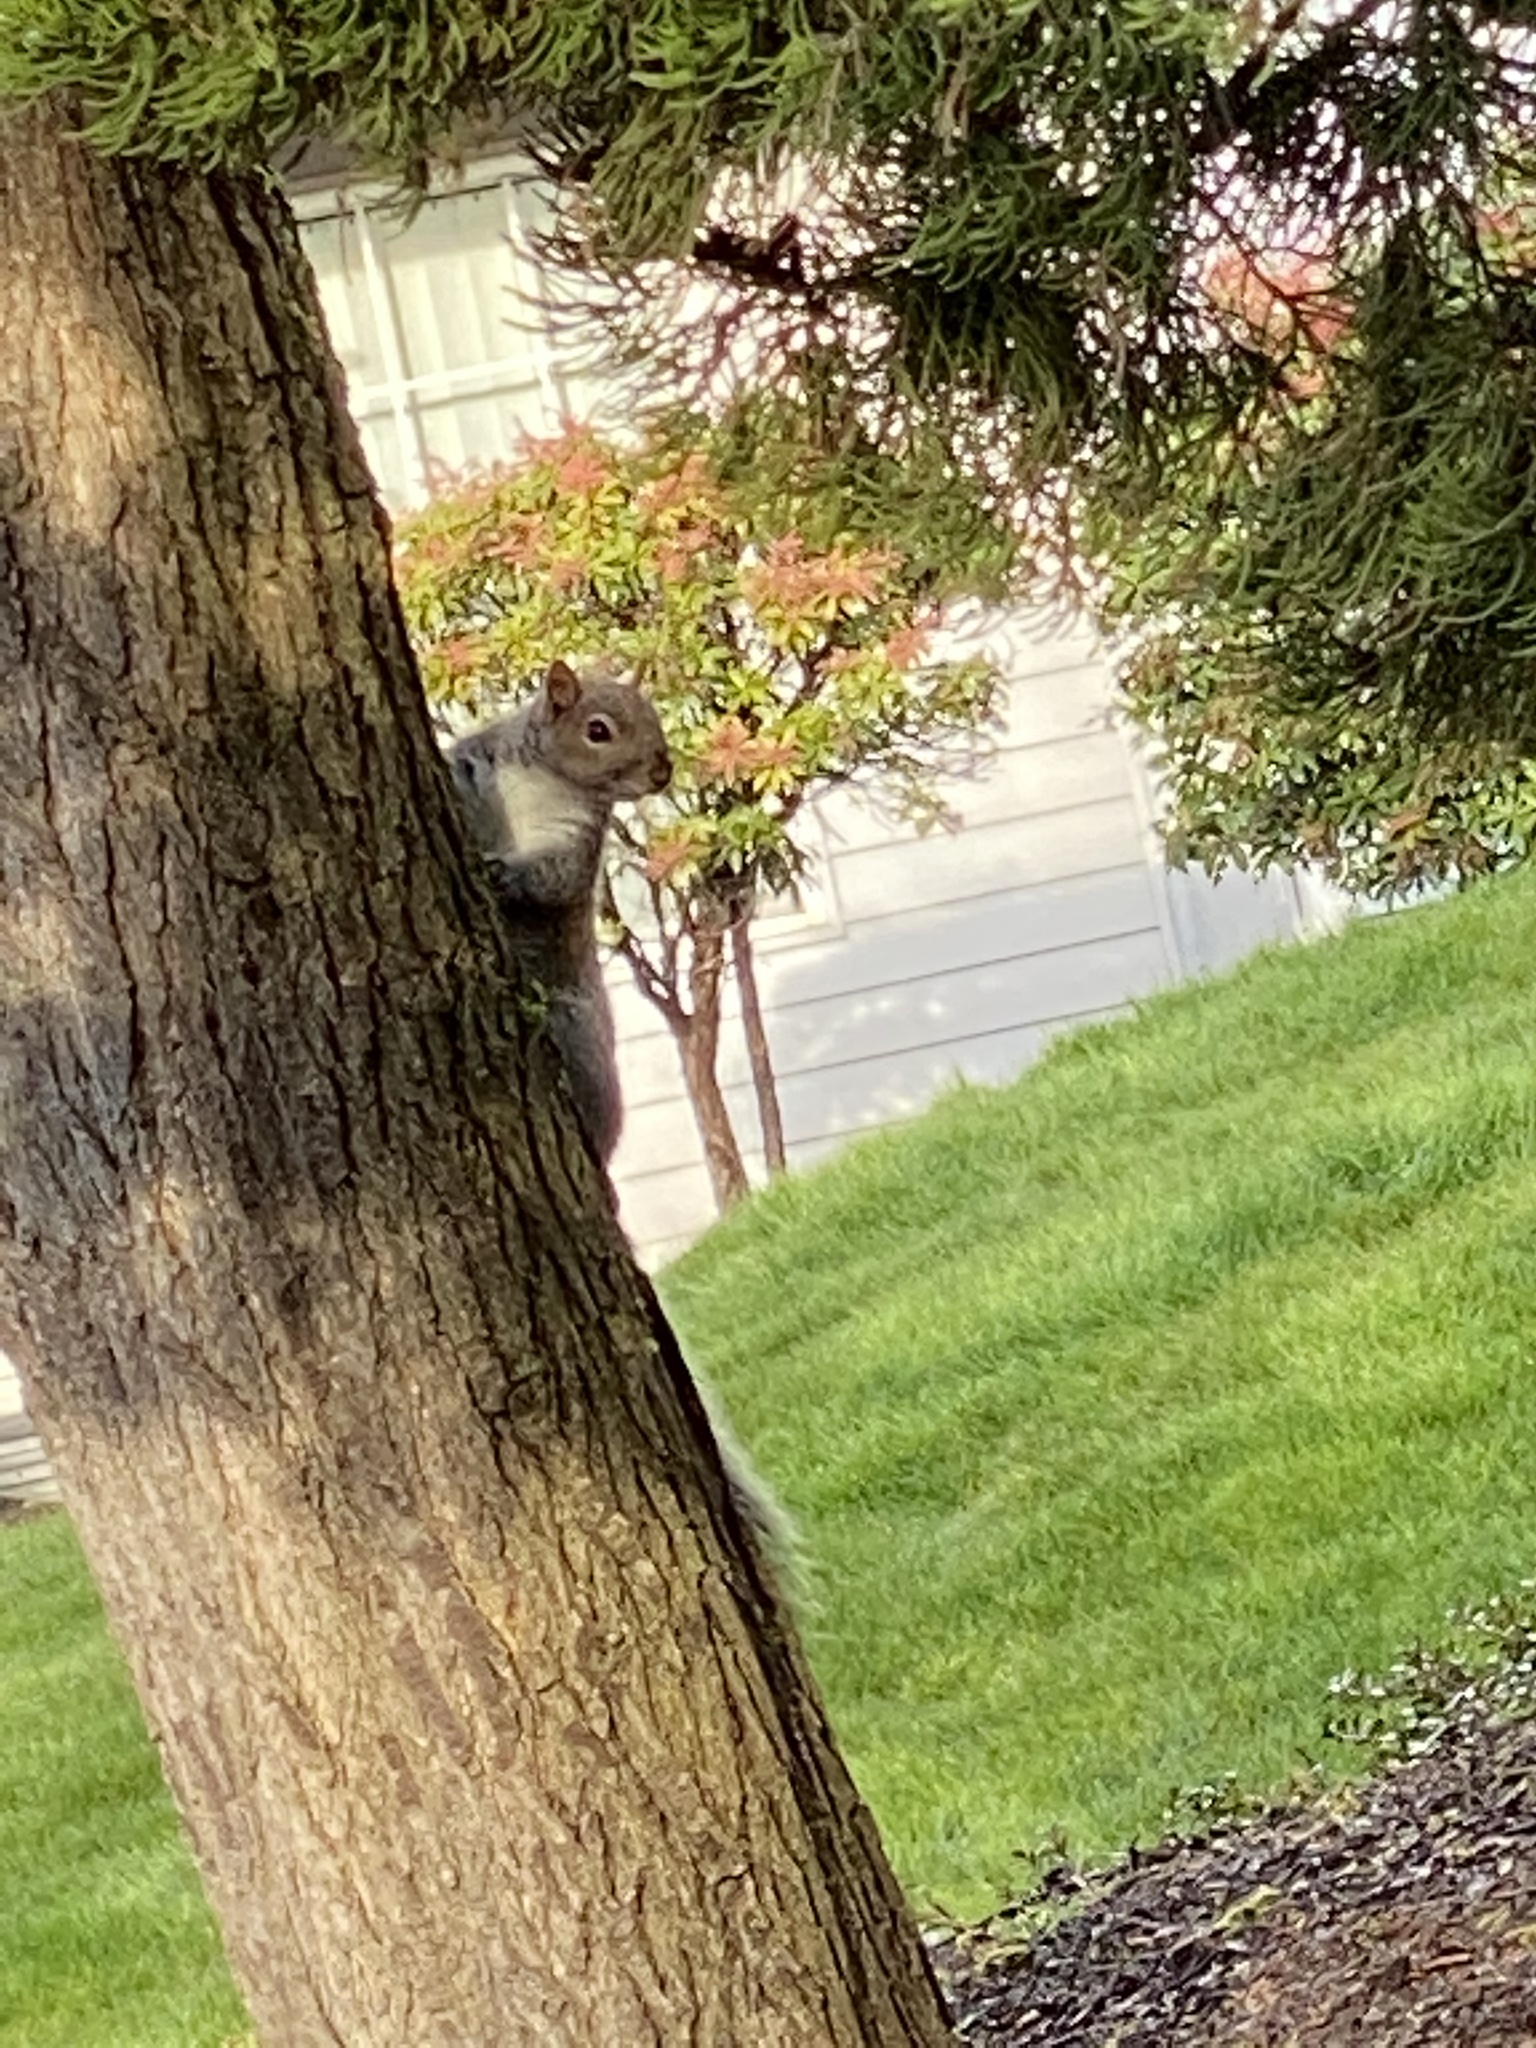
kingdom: Animalia
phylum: Chordata
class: Mammalia
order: Rodentia
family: Sciuridae
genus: Sciurus
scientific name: Sciurus carolinensis
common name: Eastern gray squirrel
